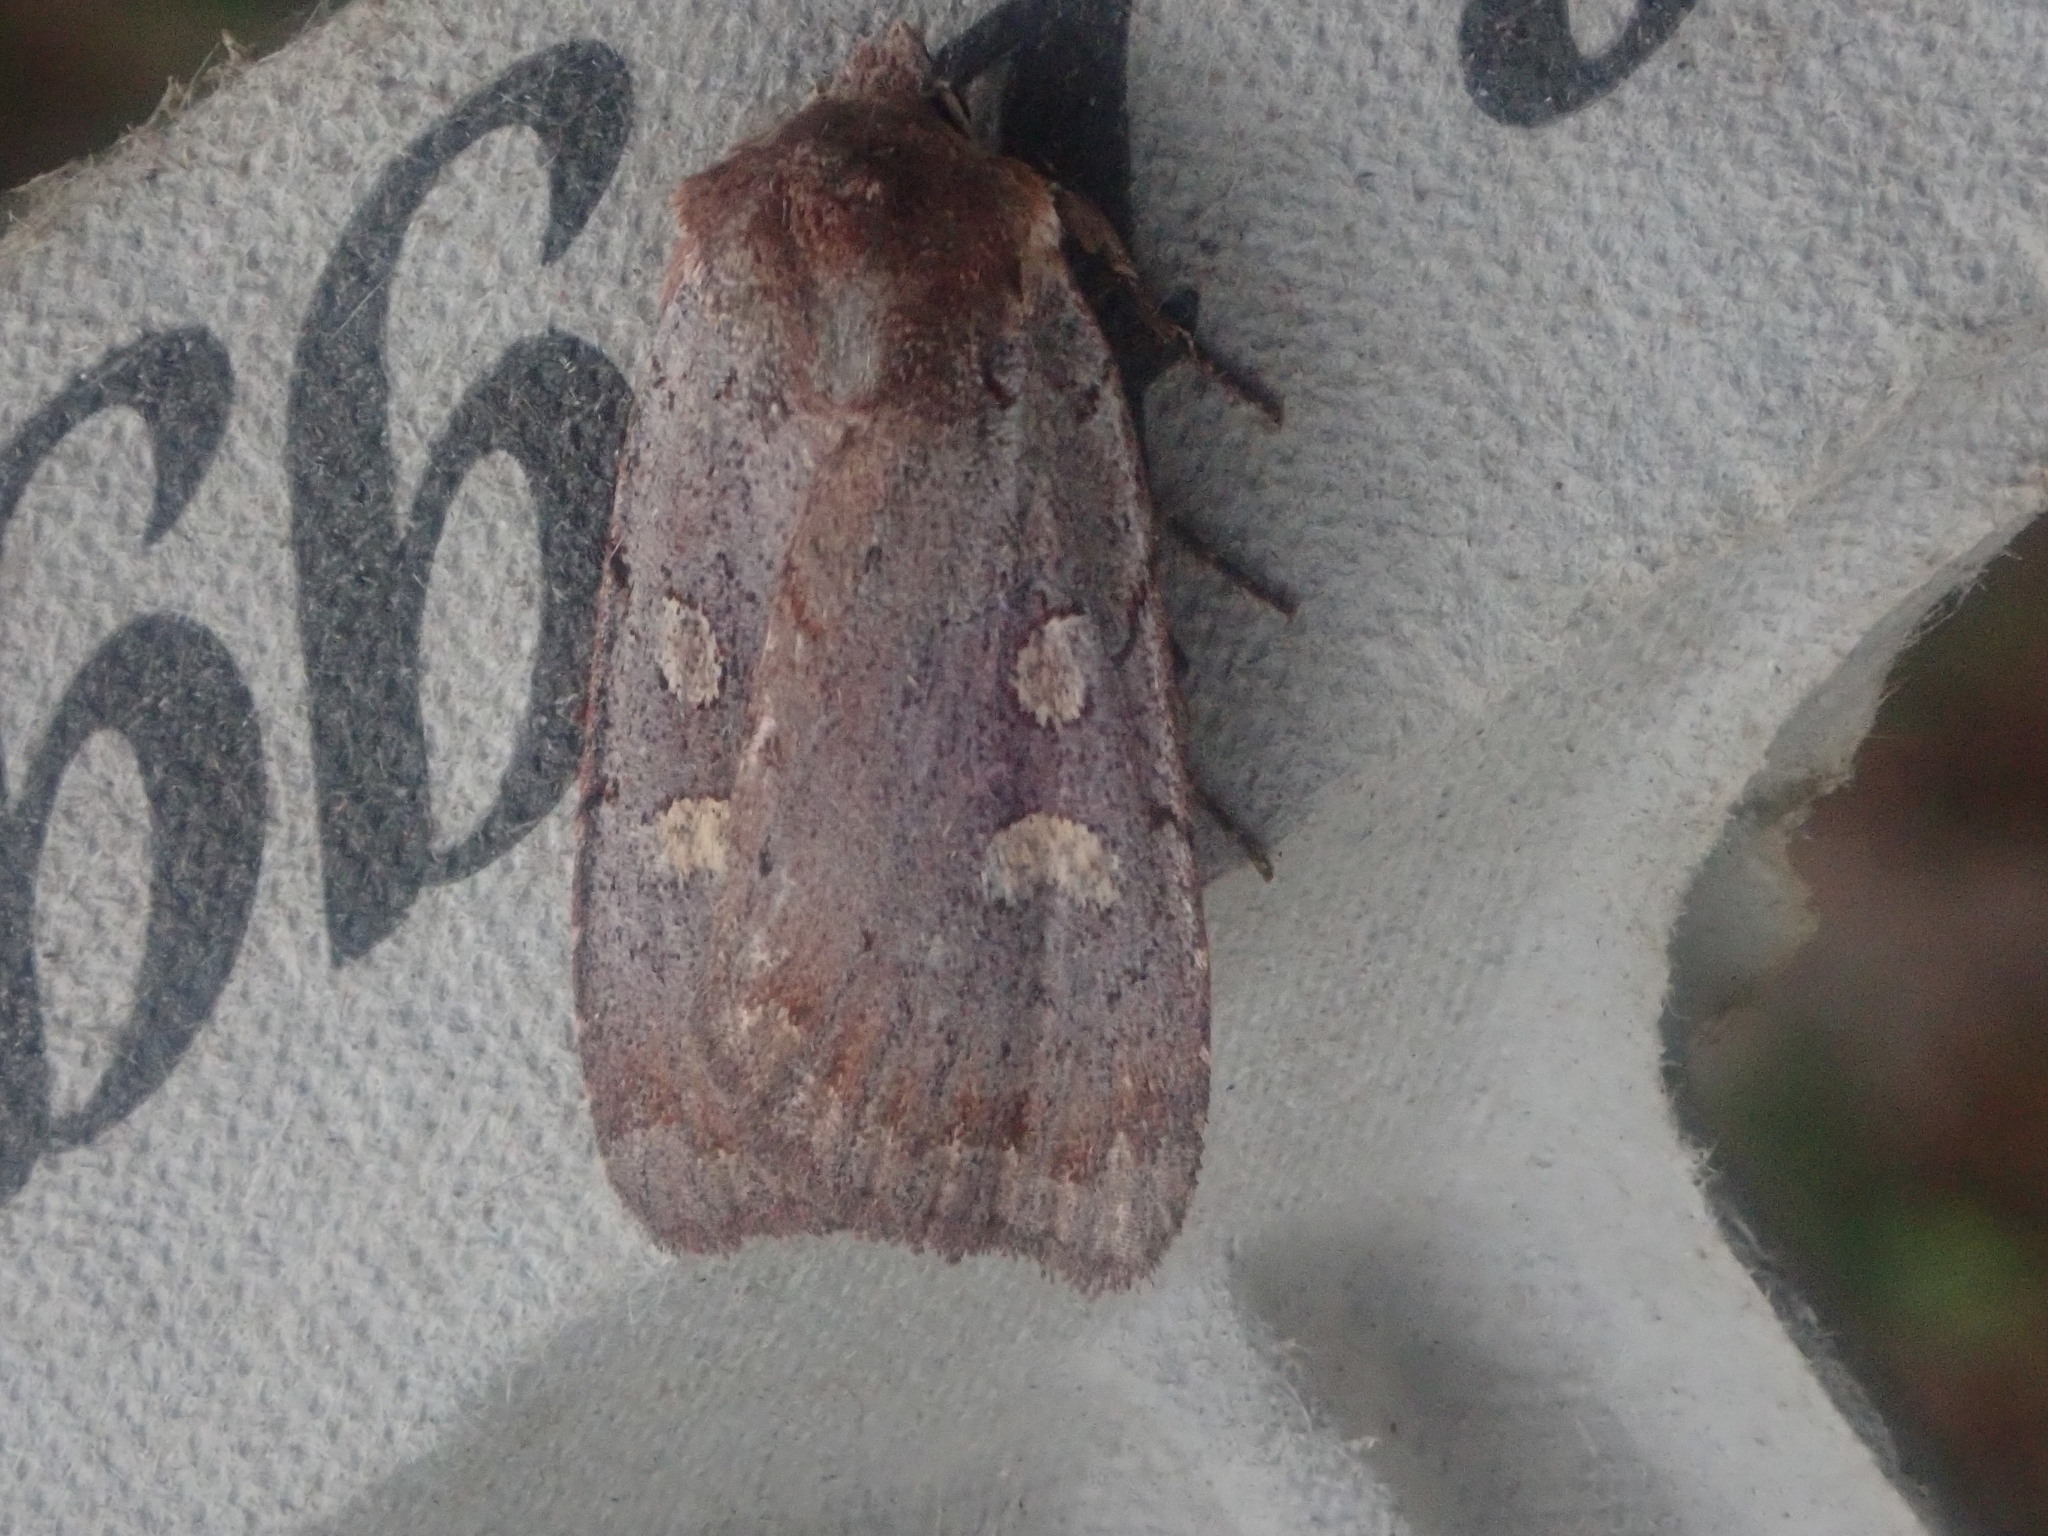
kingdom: Animalia
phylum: Arthropoda
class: Insecta
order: Lepidoptera
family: Noctuidae
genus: Xestia
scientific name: Xestia dilucida
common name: Dull reddish dart
